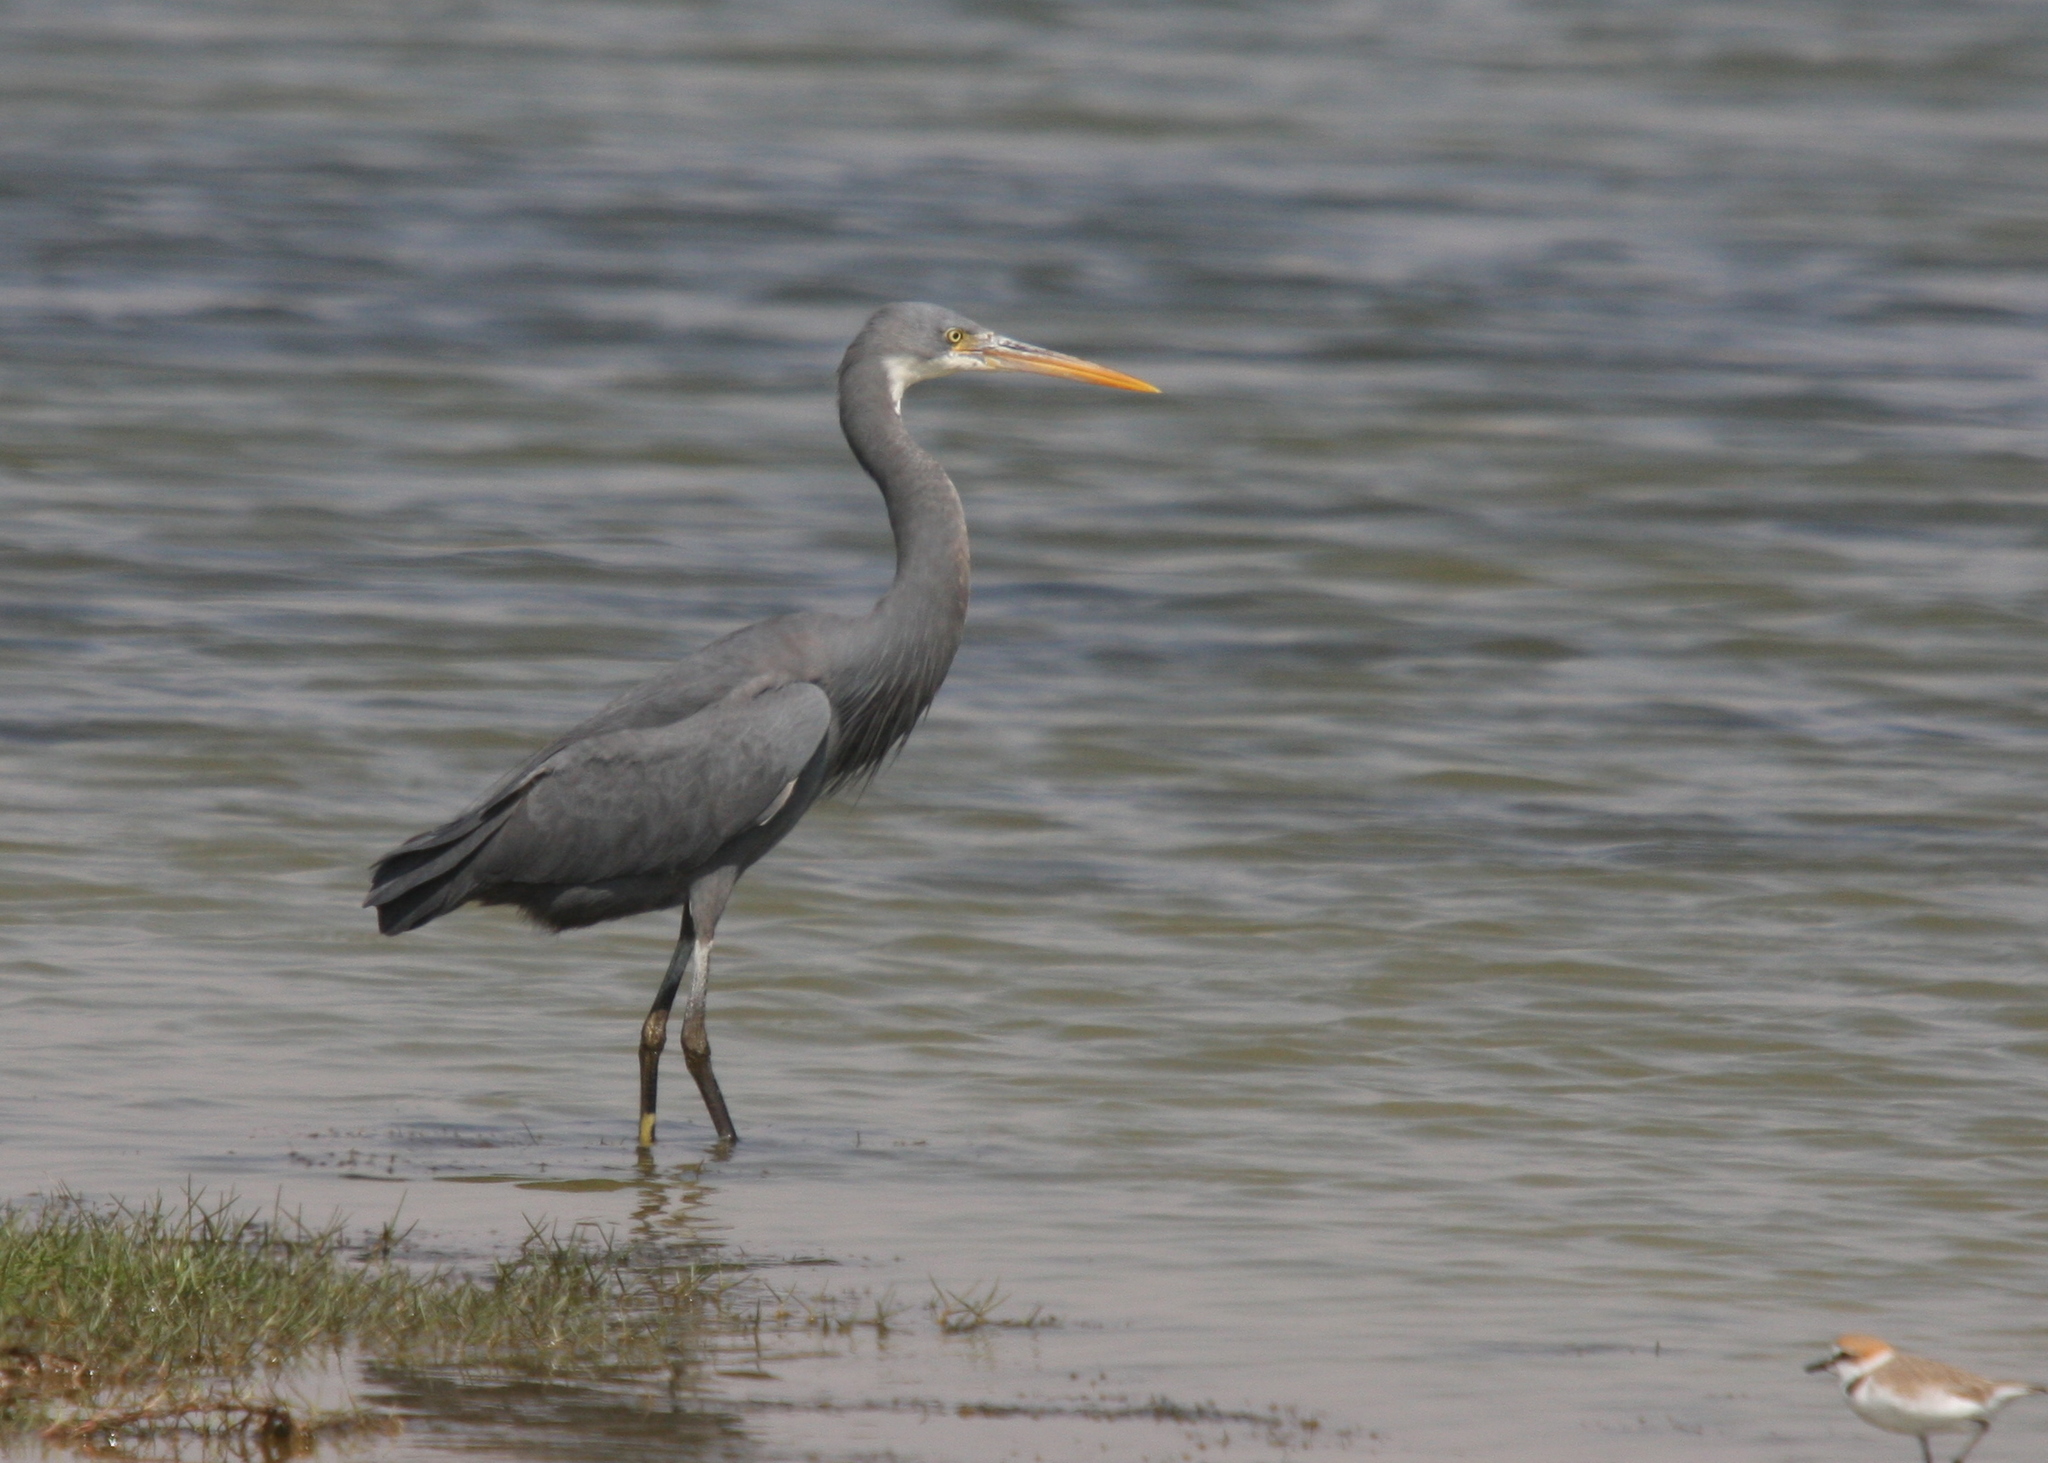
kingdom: Animalia
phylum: Chordata
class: Aves
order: Pelecaniformes
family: Ardeidae
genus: Egretta
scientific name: Egretta gularis
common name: Western reef-heron
